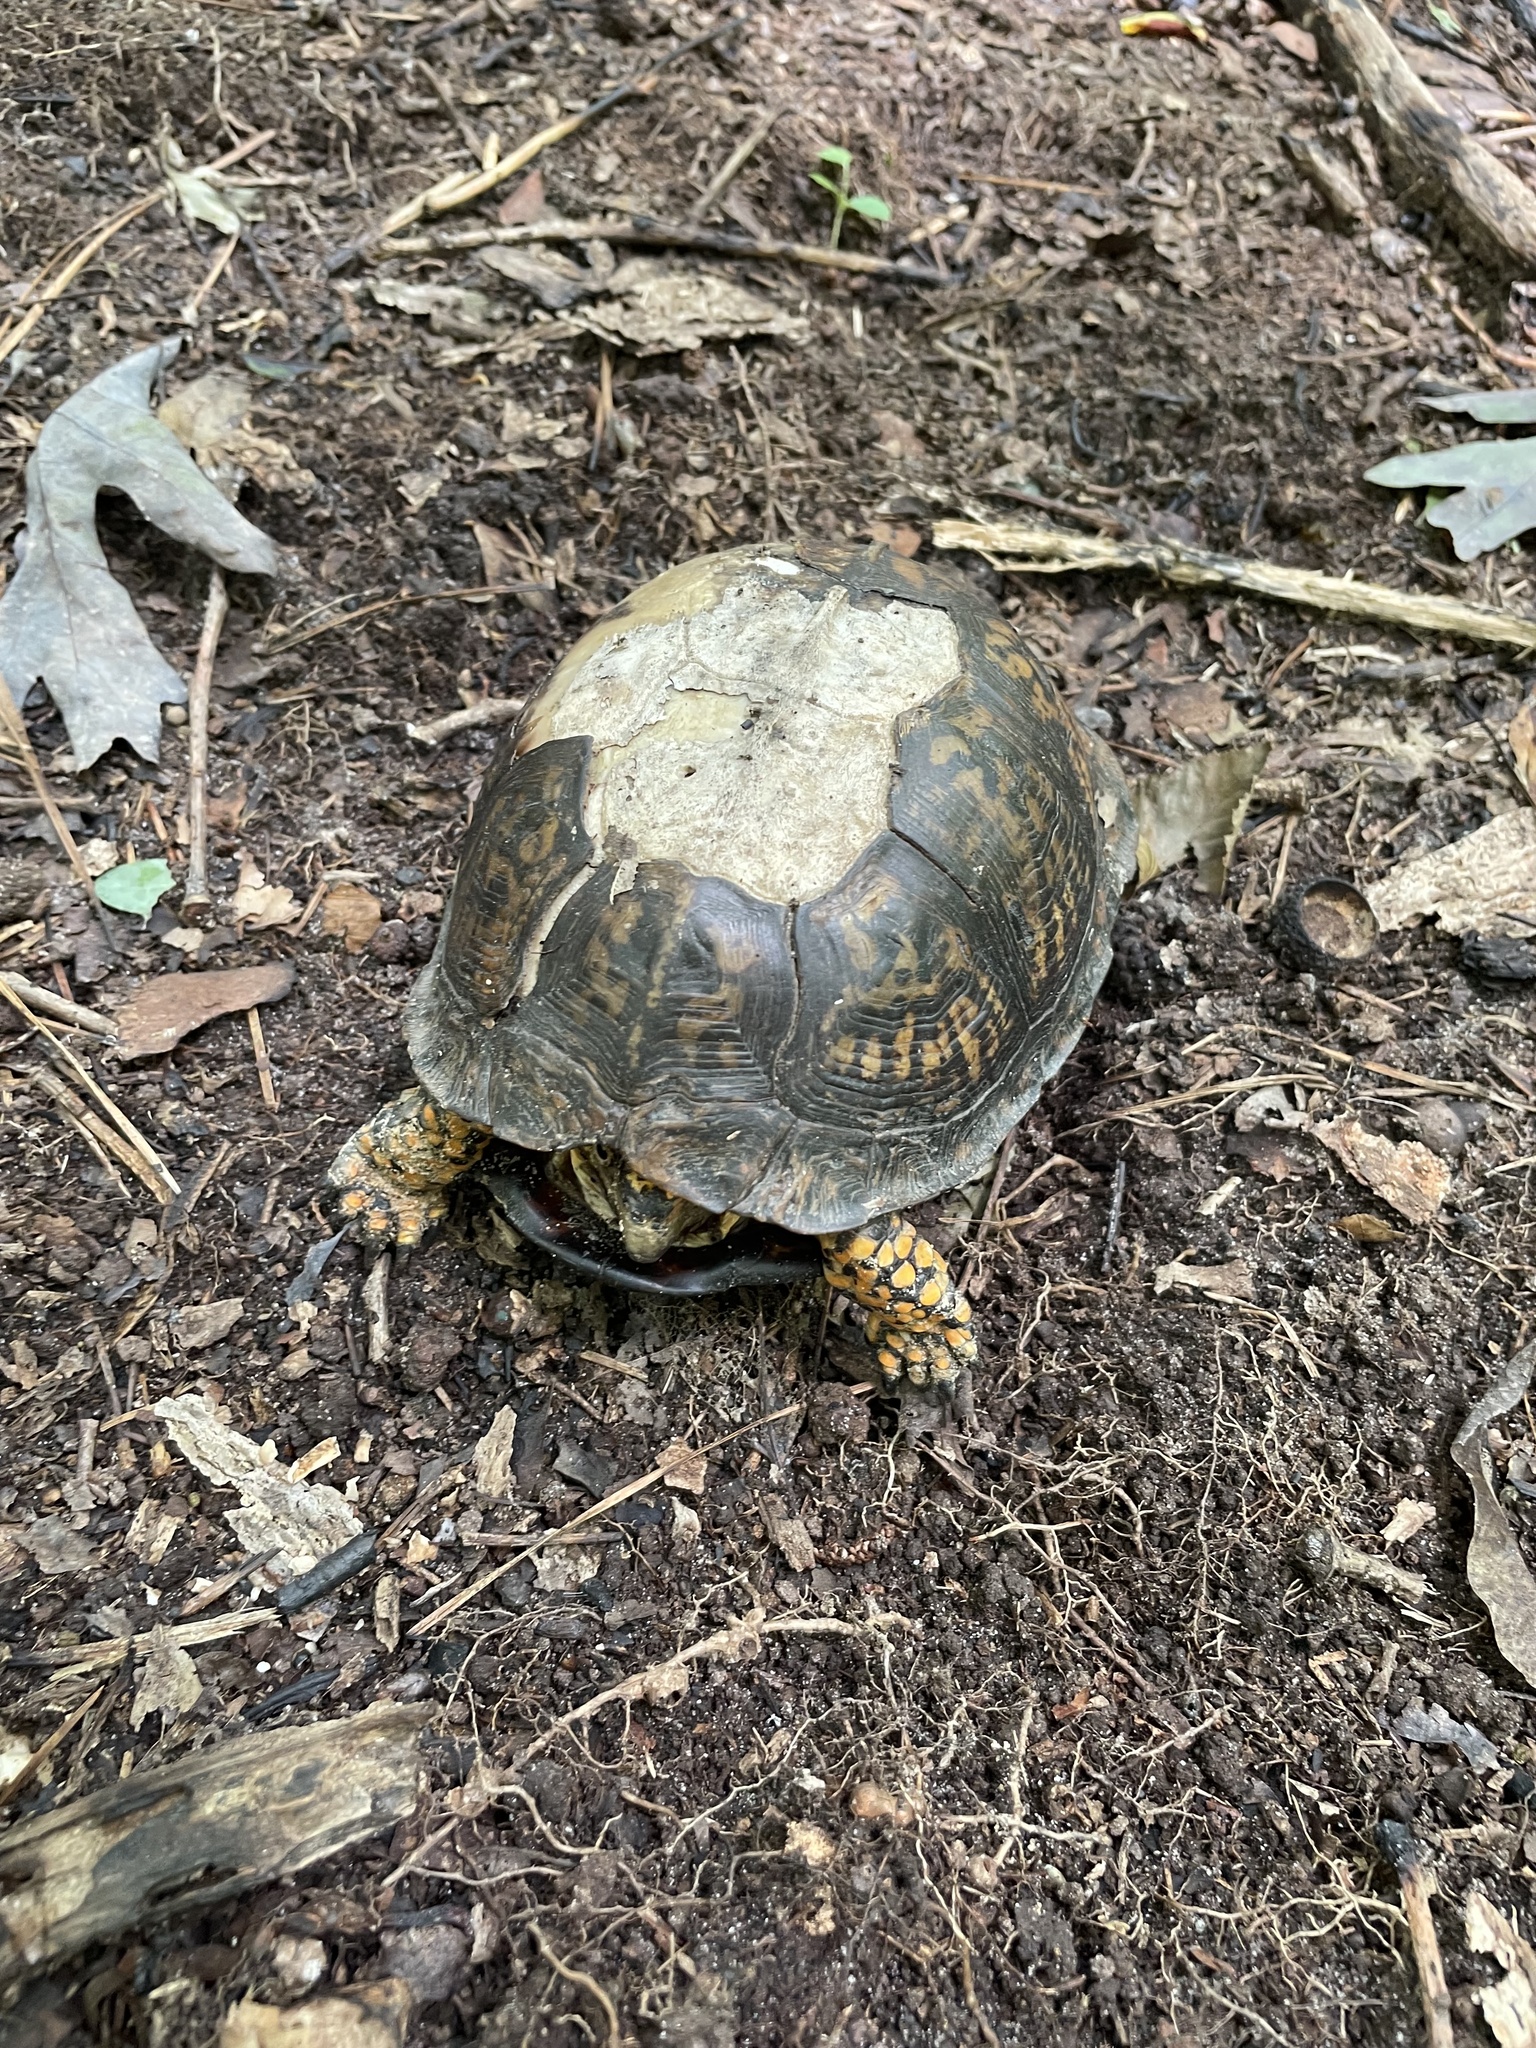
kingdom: Animalia
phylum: Chordata
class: Testudines
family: Emydidae
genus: Terrapene
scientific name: Terrapene carolina
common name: Common box turtle
